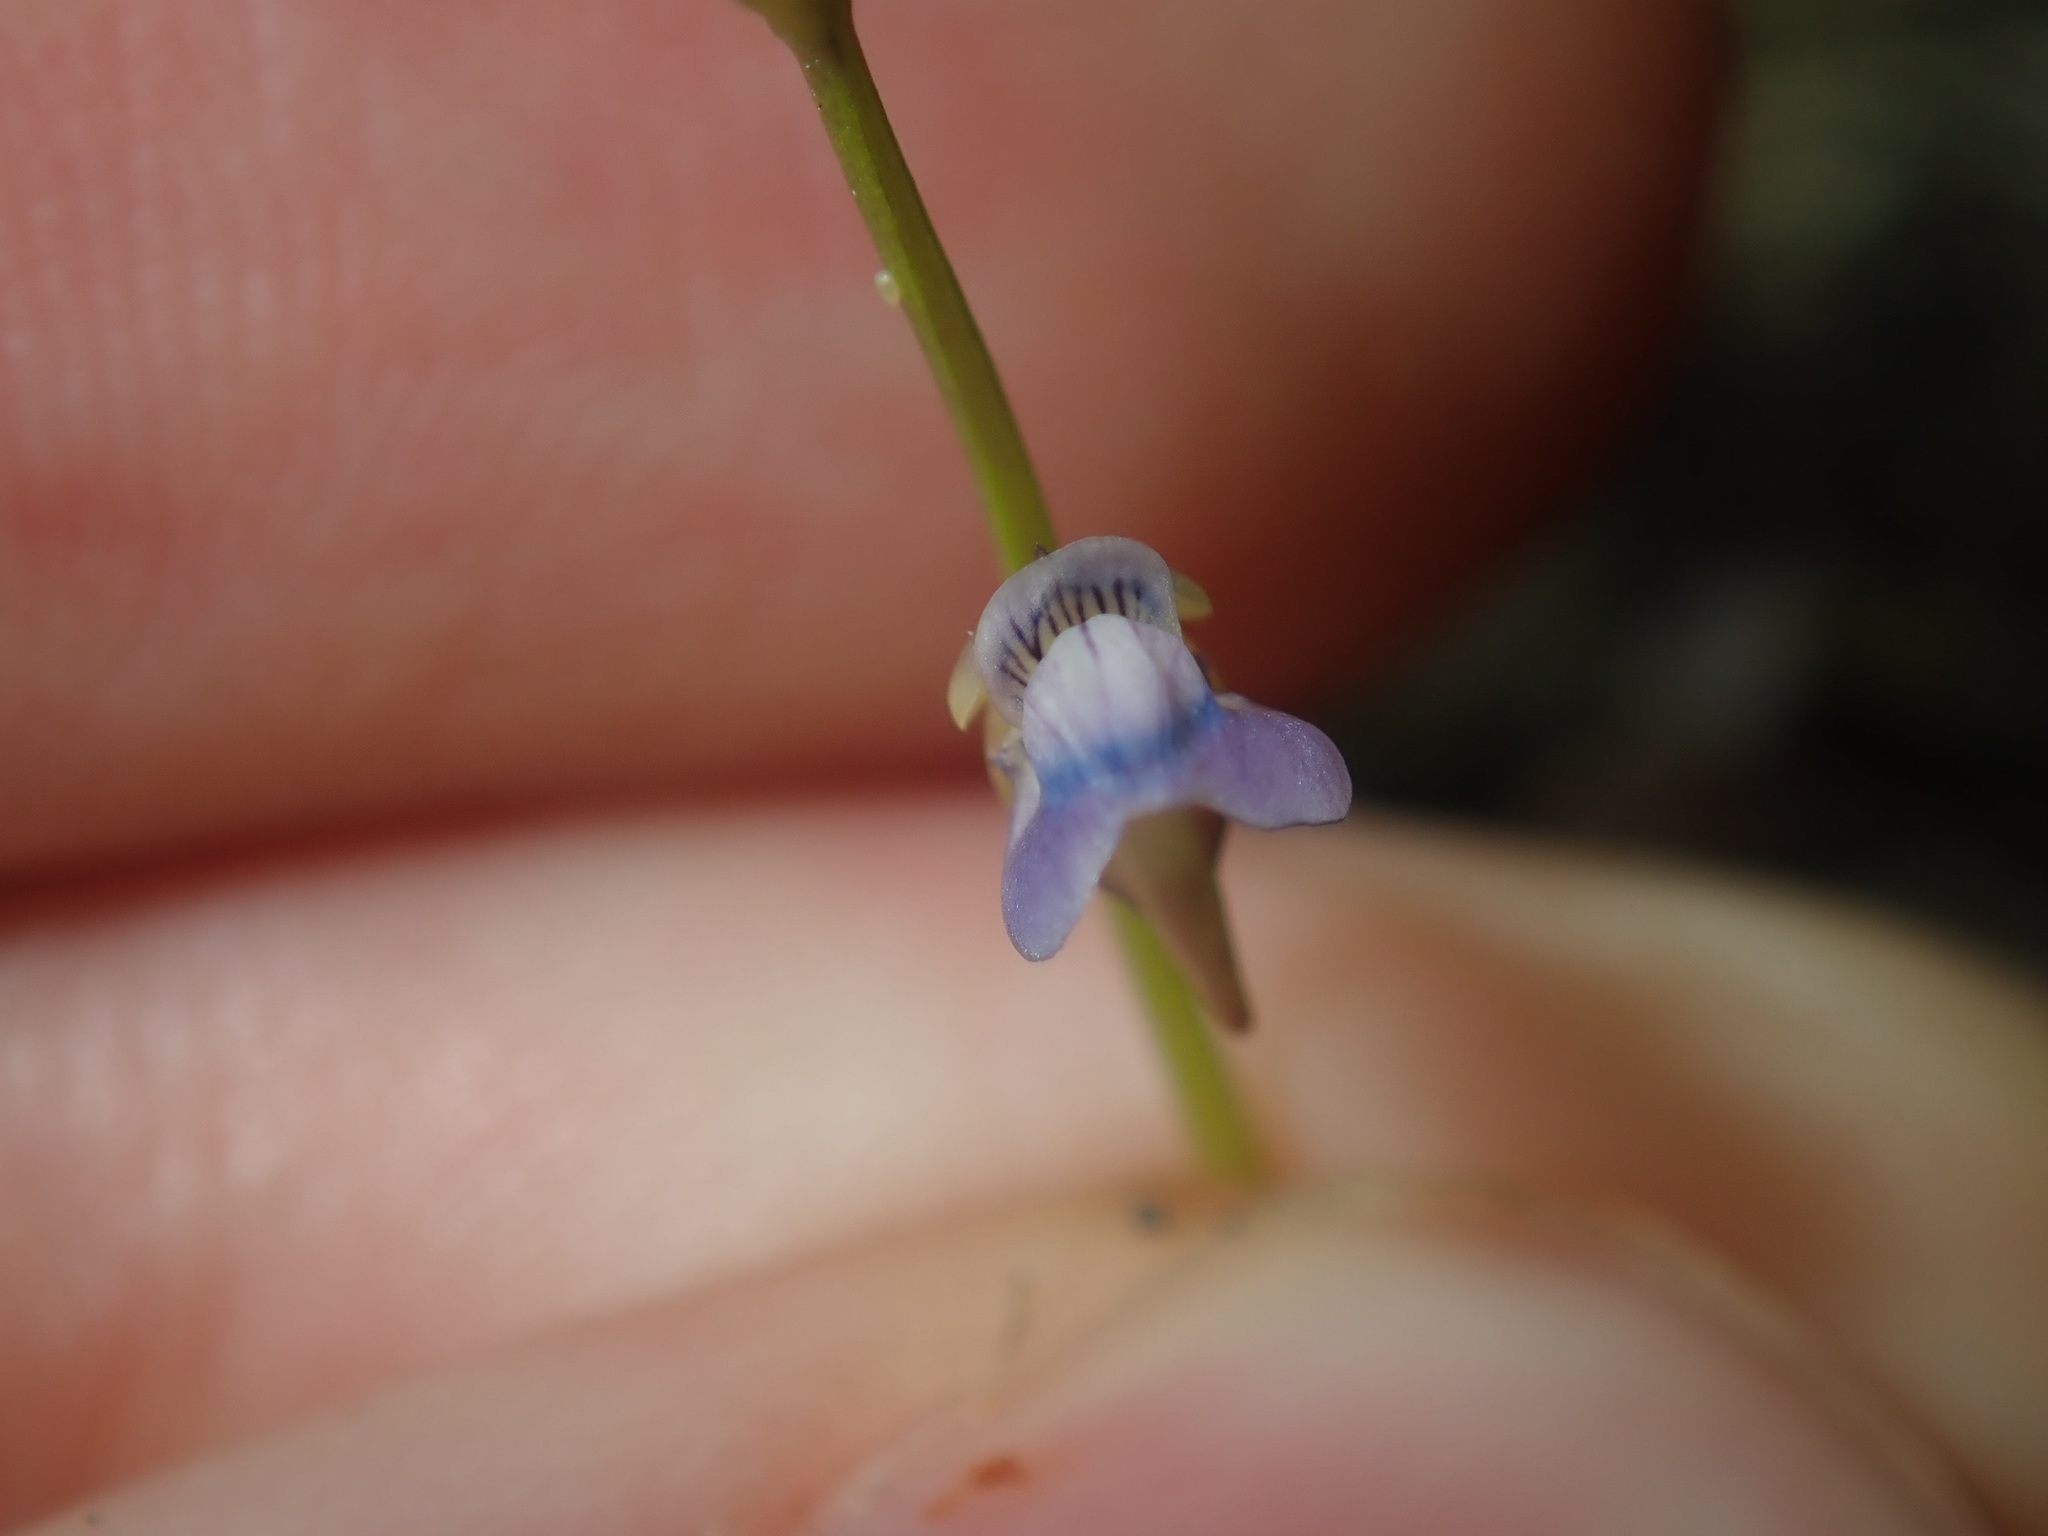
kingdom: Plantae
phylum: Tracheophyta
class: Magnoliopsida
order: Lamiales
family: Lentibulariaceae
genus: Utricularia
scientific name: Utricularia uliginosa
